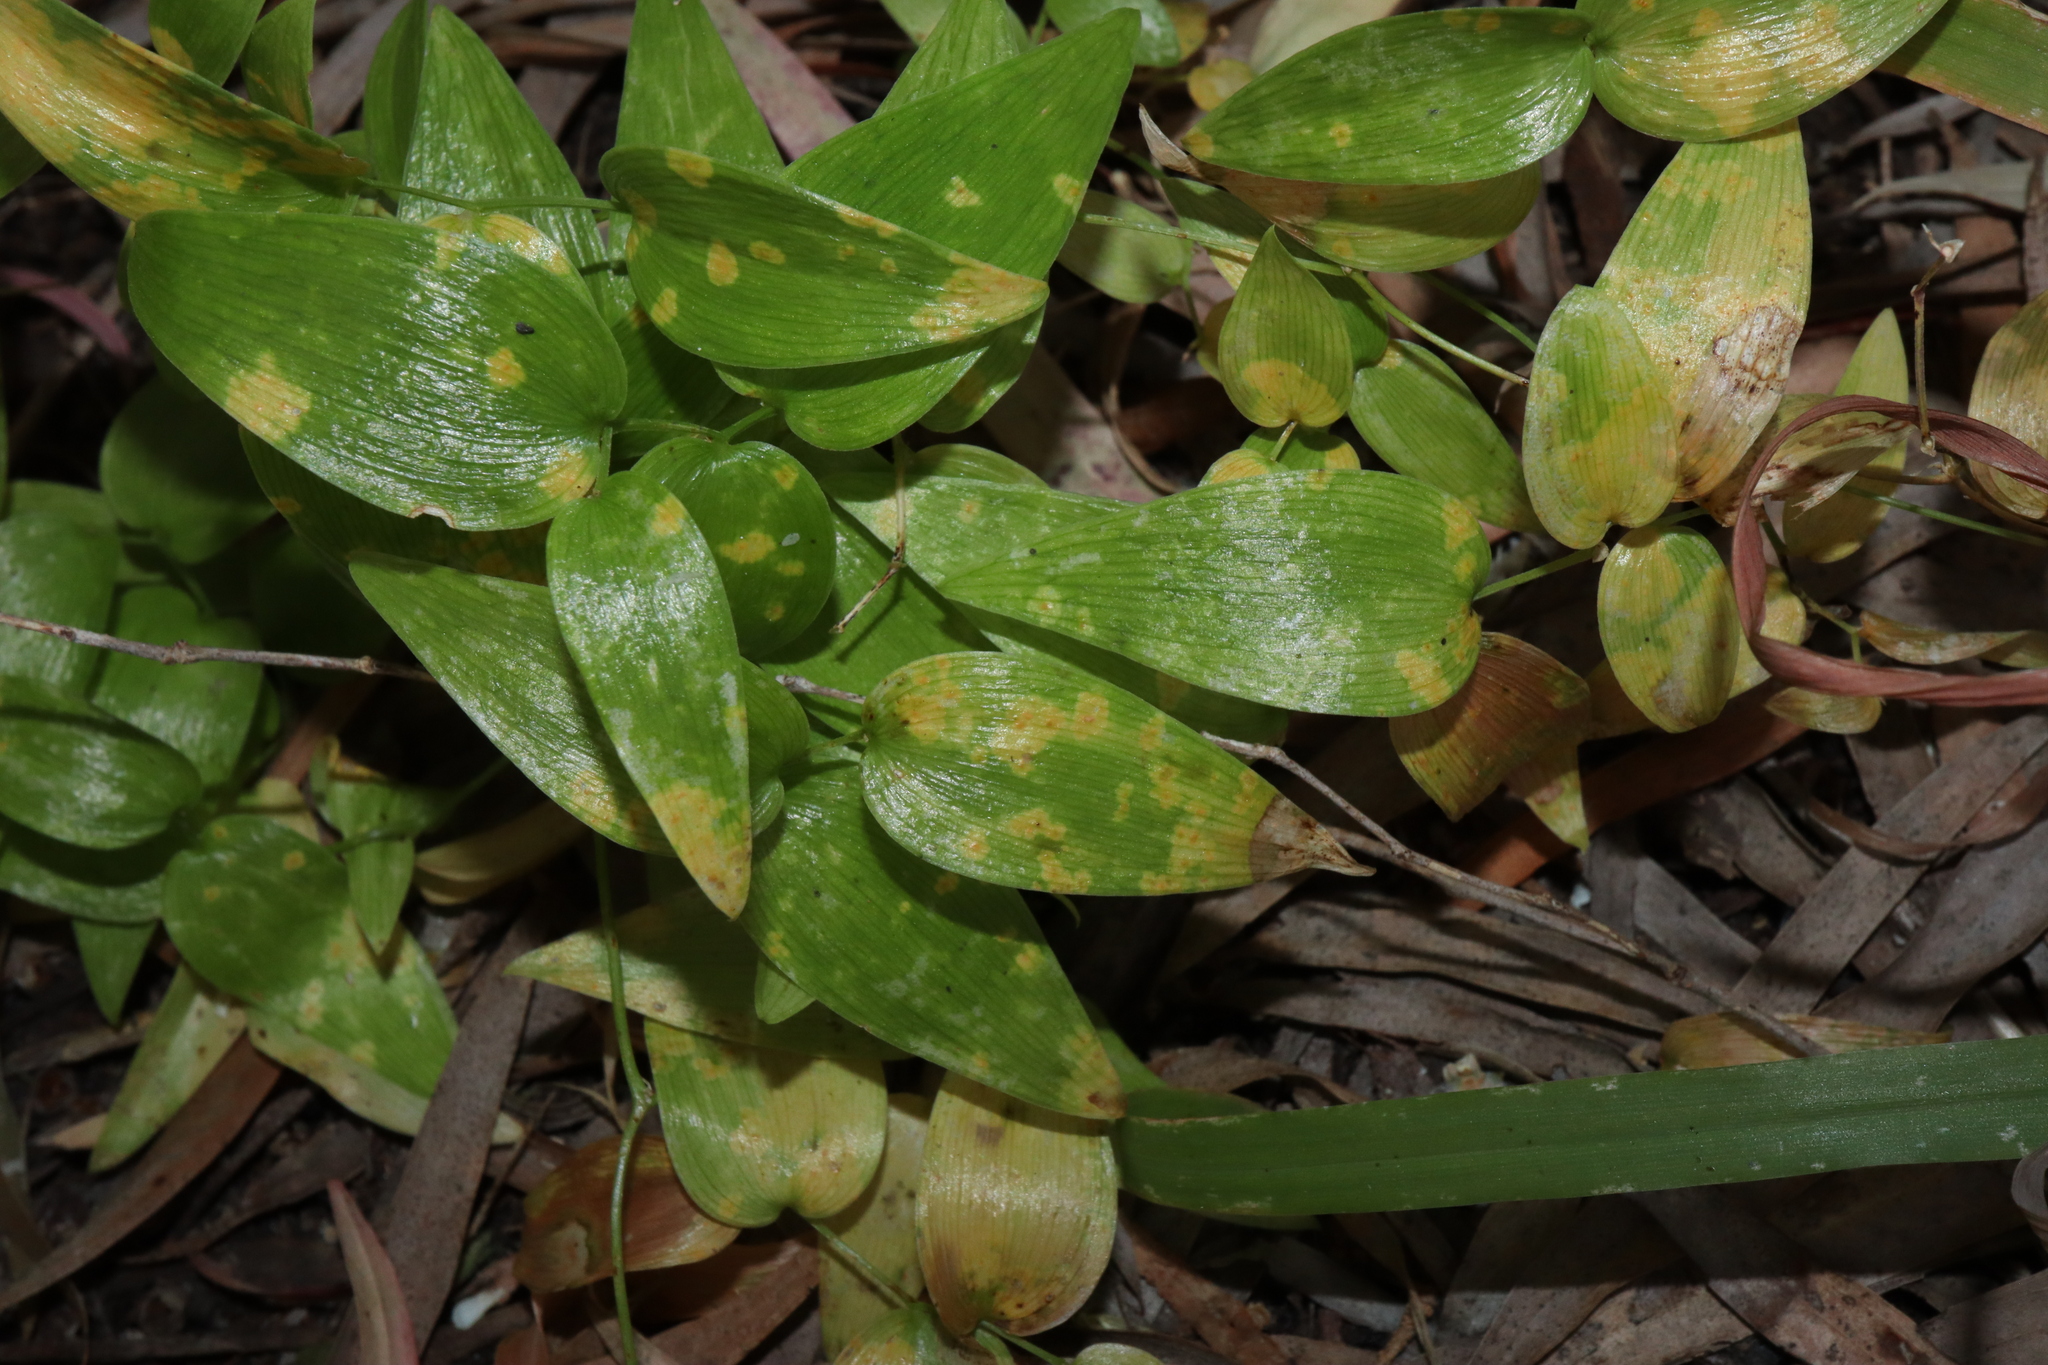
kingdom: Fungi
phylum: Basidiomycota
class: Pucciniomycetes
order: Pucciniales
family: Pucciniaceae
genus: Puccinia
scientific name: Puccinia myrsiphylli
